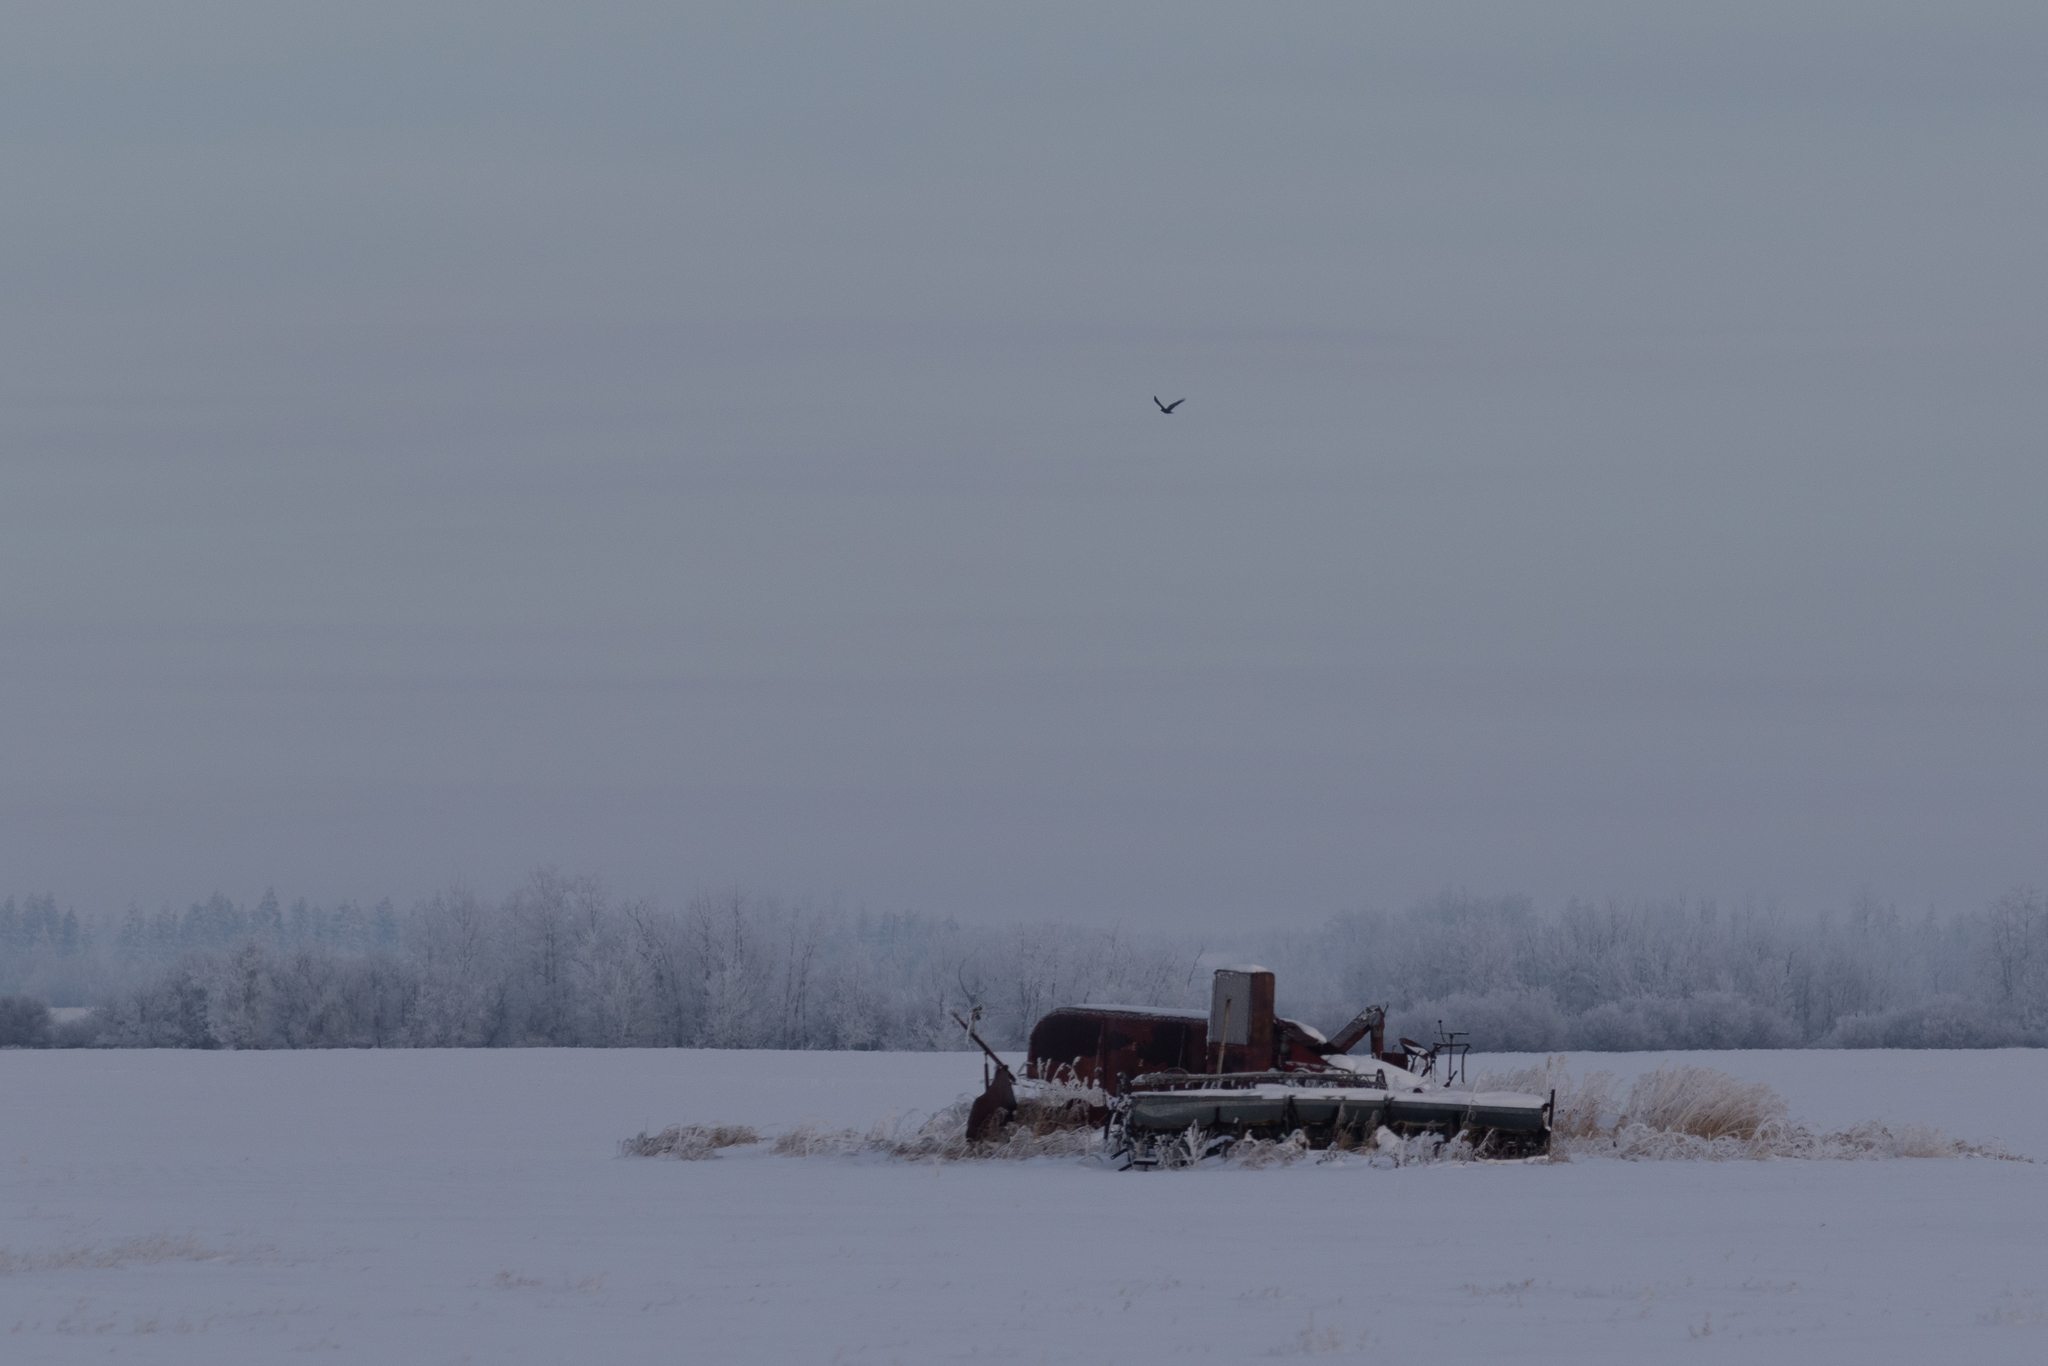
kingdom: Animalia
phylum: Chordata
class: Aves
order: Passeriformes
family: Corvidae
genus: Corvus
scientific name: Corvus corax
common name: Common raven
